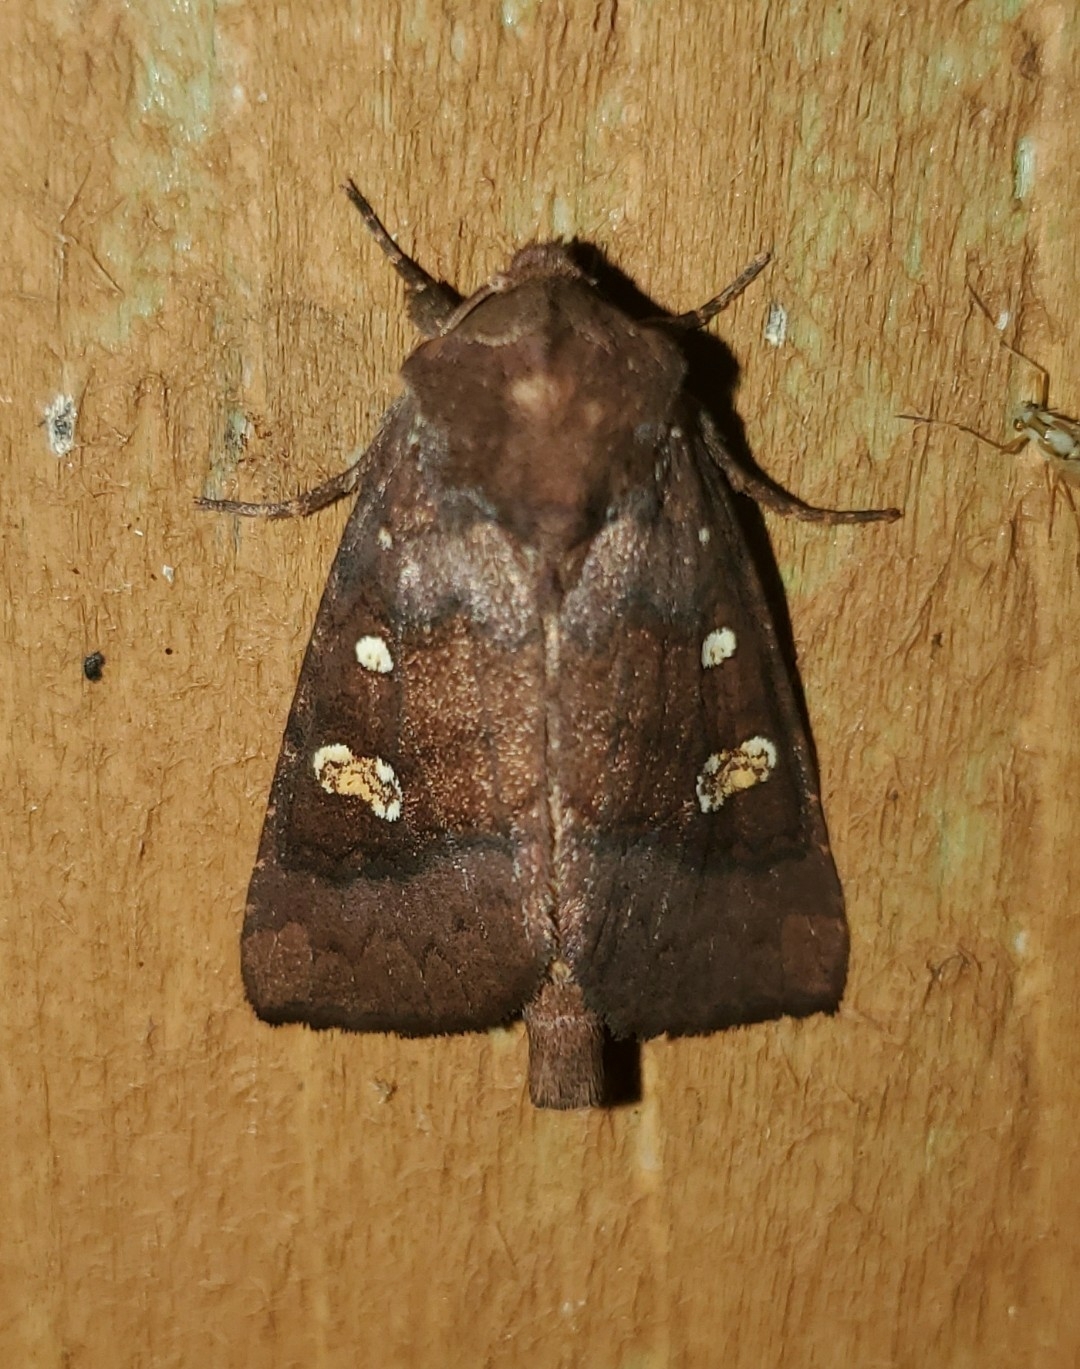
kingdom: Animalia
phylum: Arthropoda
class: Insecta
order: Lepidoptera
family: Noctuidae
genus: Parapamea
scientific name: Parapamea buffaloensis
